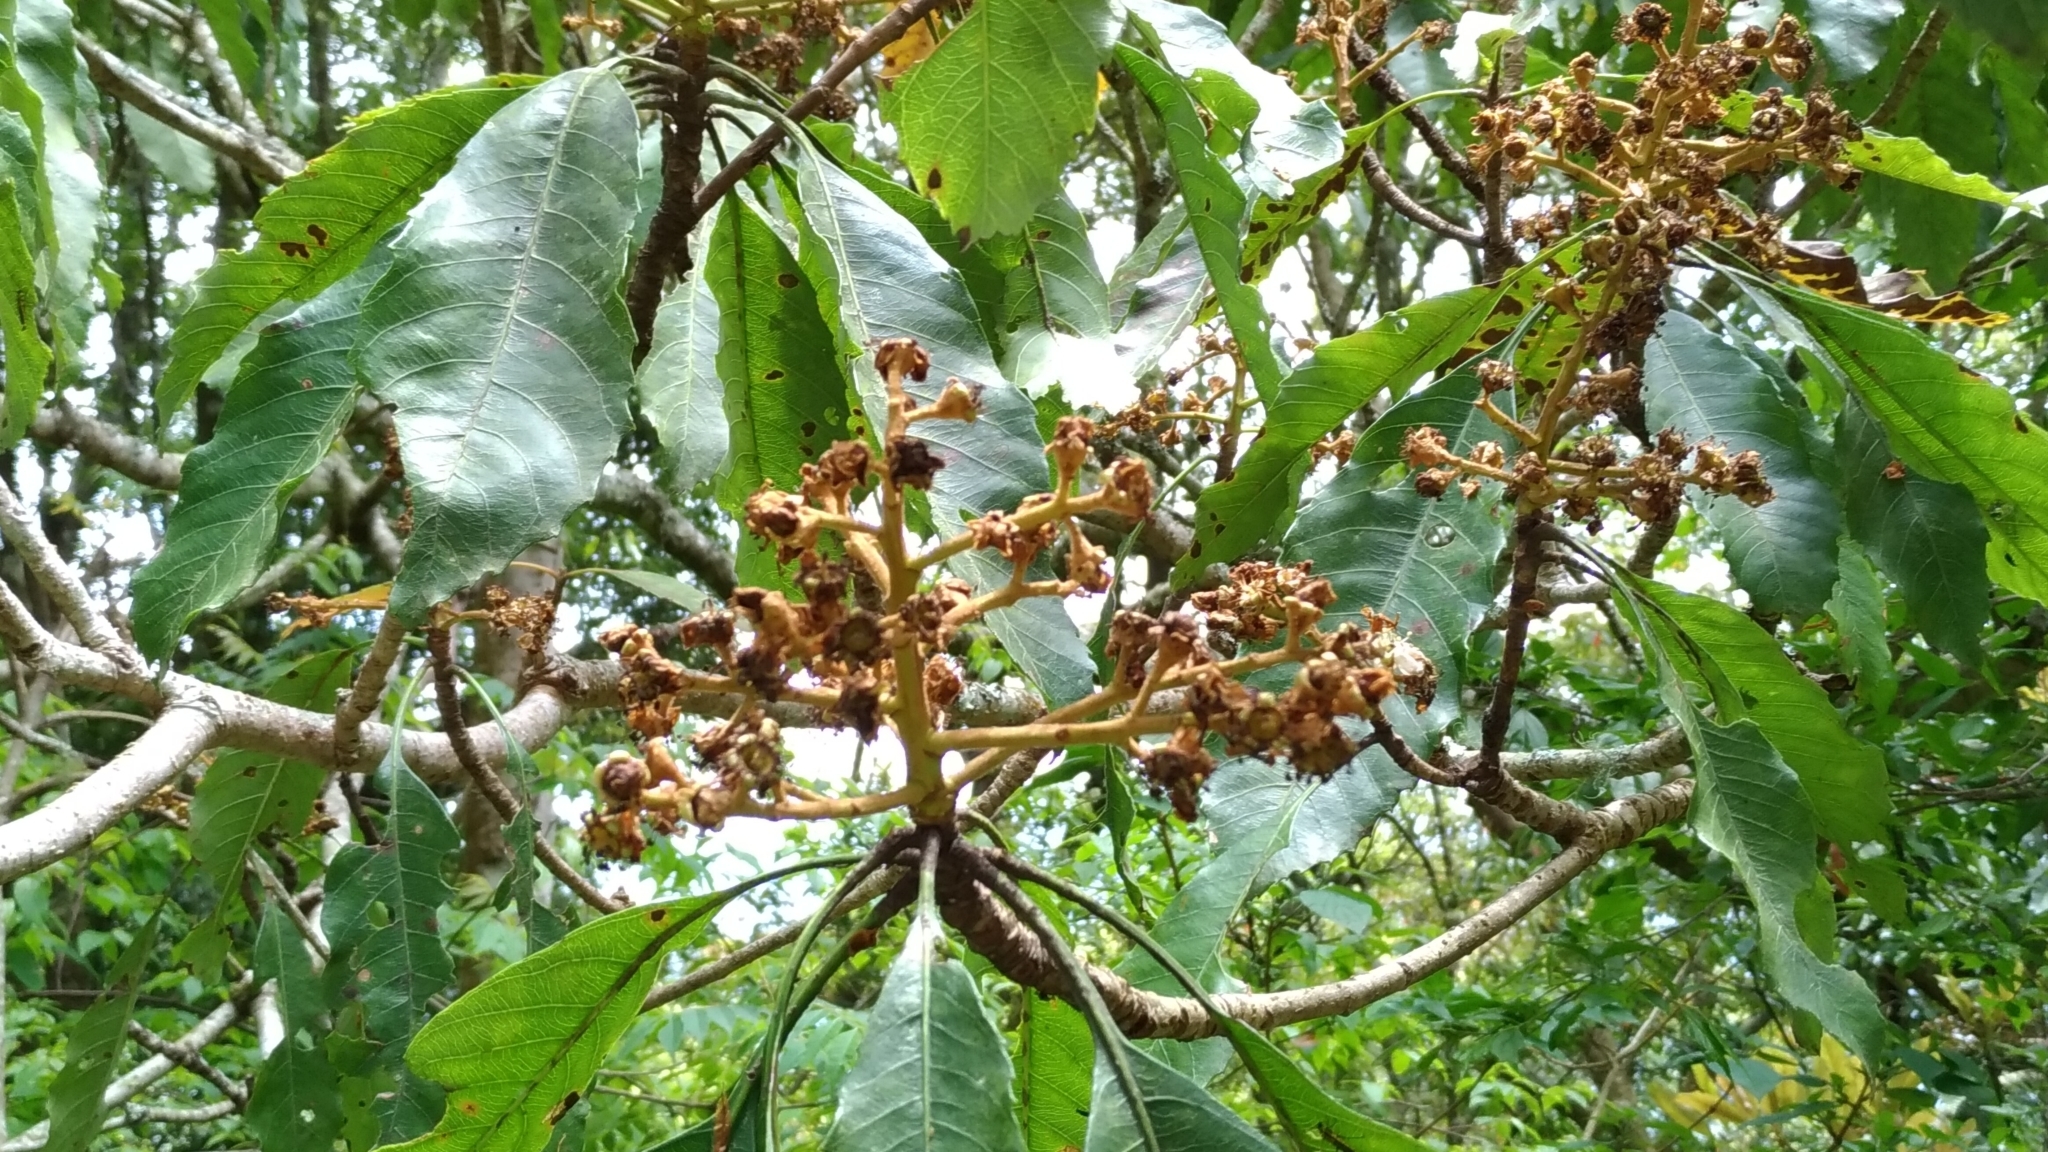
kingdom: Plantae
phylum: Tracheophyta
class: Magnoliopsida
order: Rosales
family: Rosaceae
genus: Rhaphiolepis
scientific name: Rhaphiolepis deflexa
